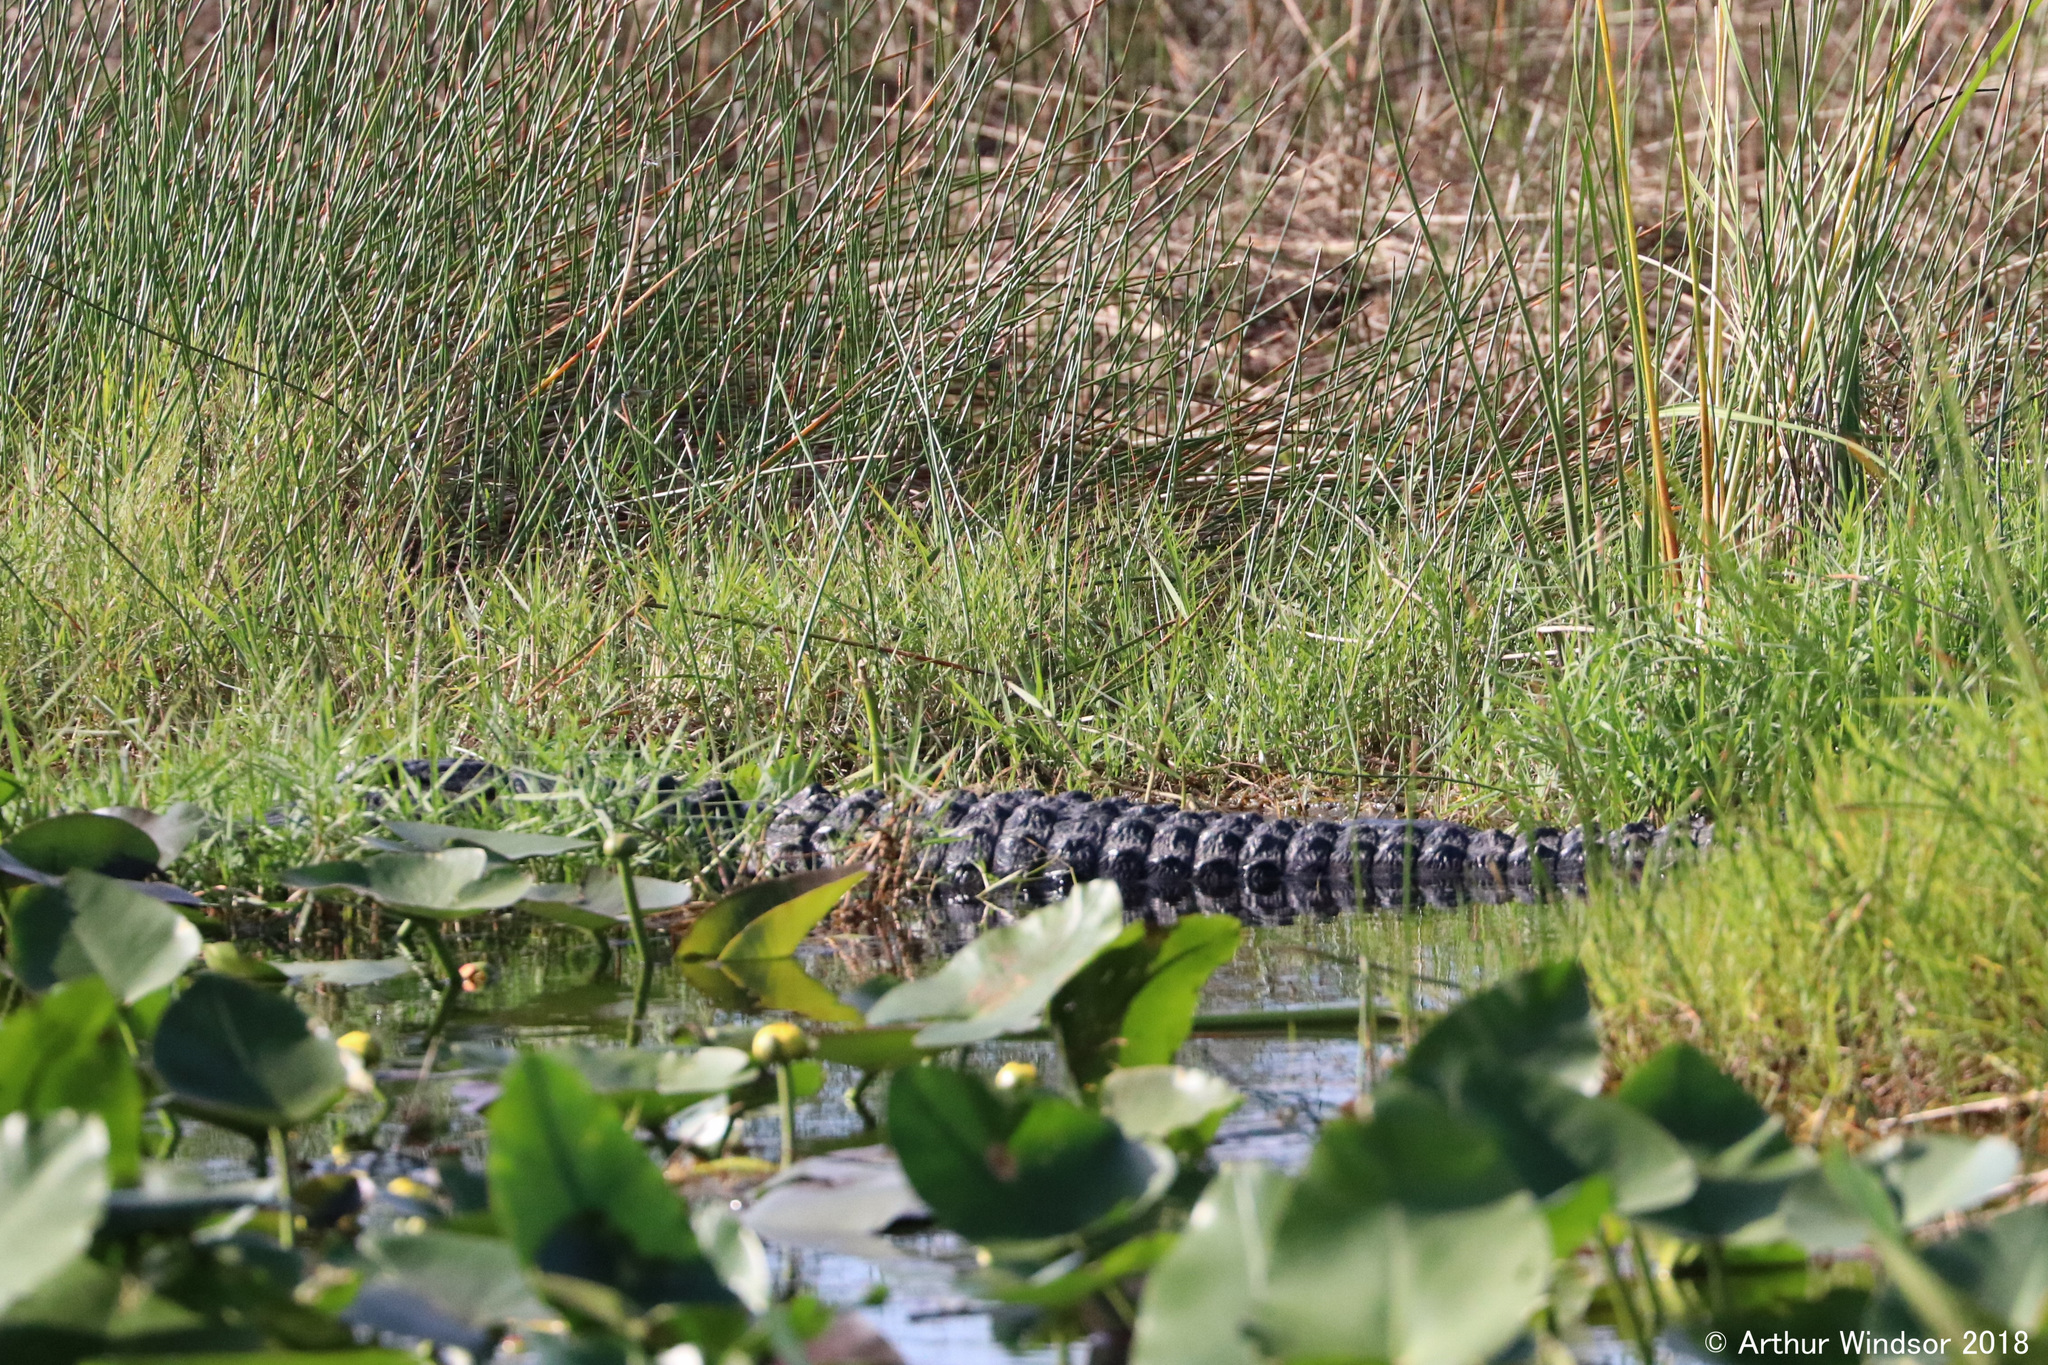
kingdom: Animalia
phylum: Chordata
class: Crocodylia
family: Alligatoridae
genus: Alligator
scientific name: Alligator mississippiensis
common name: American alligator
